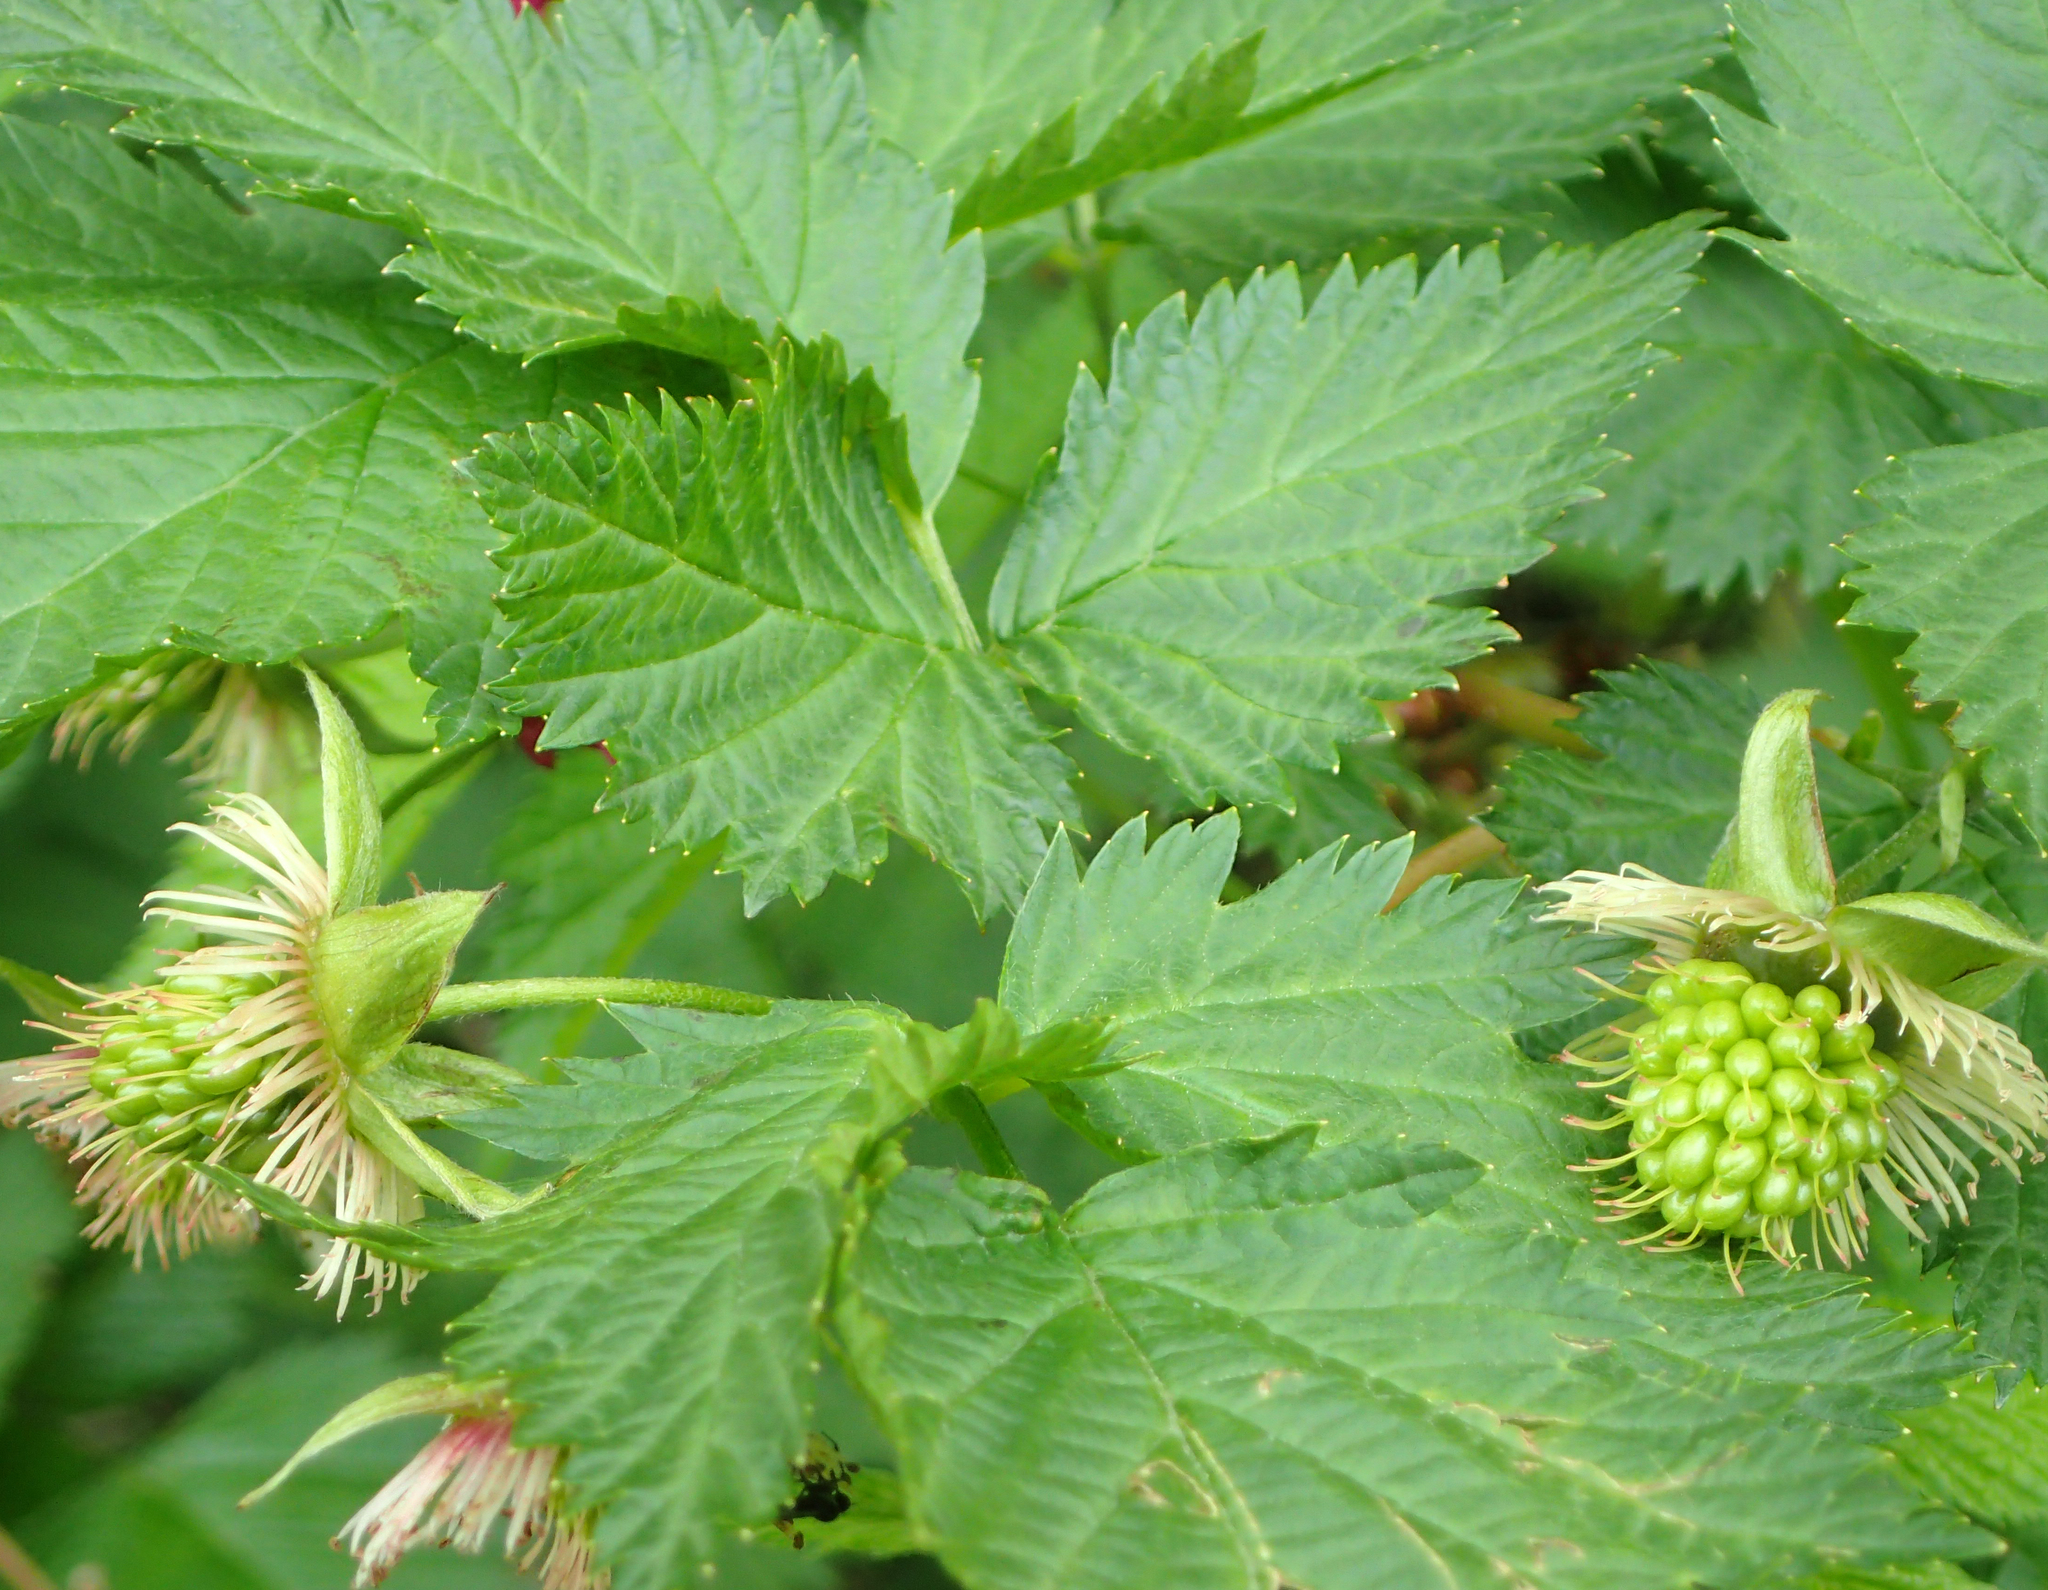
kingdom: Plantae
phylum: Tracheophyta
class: Magnoliopsida
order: Rosales
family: Rosaceae
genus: Rubus
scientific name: Rubus spectabilis
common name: Salmonberry
